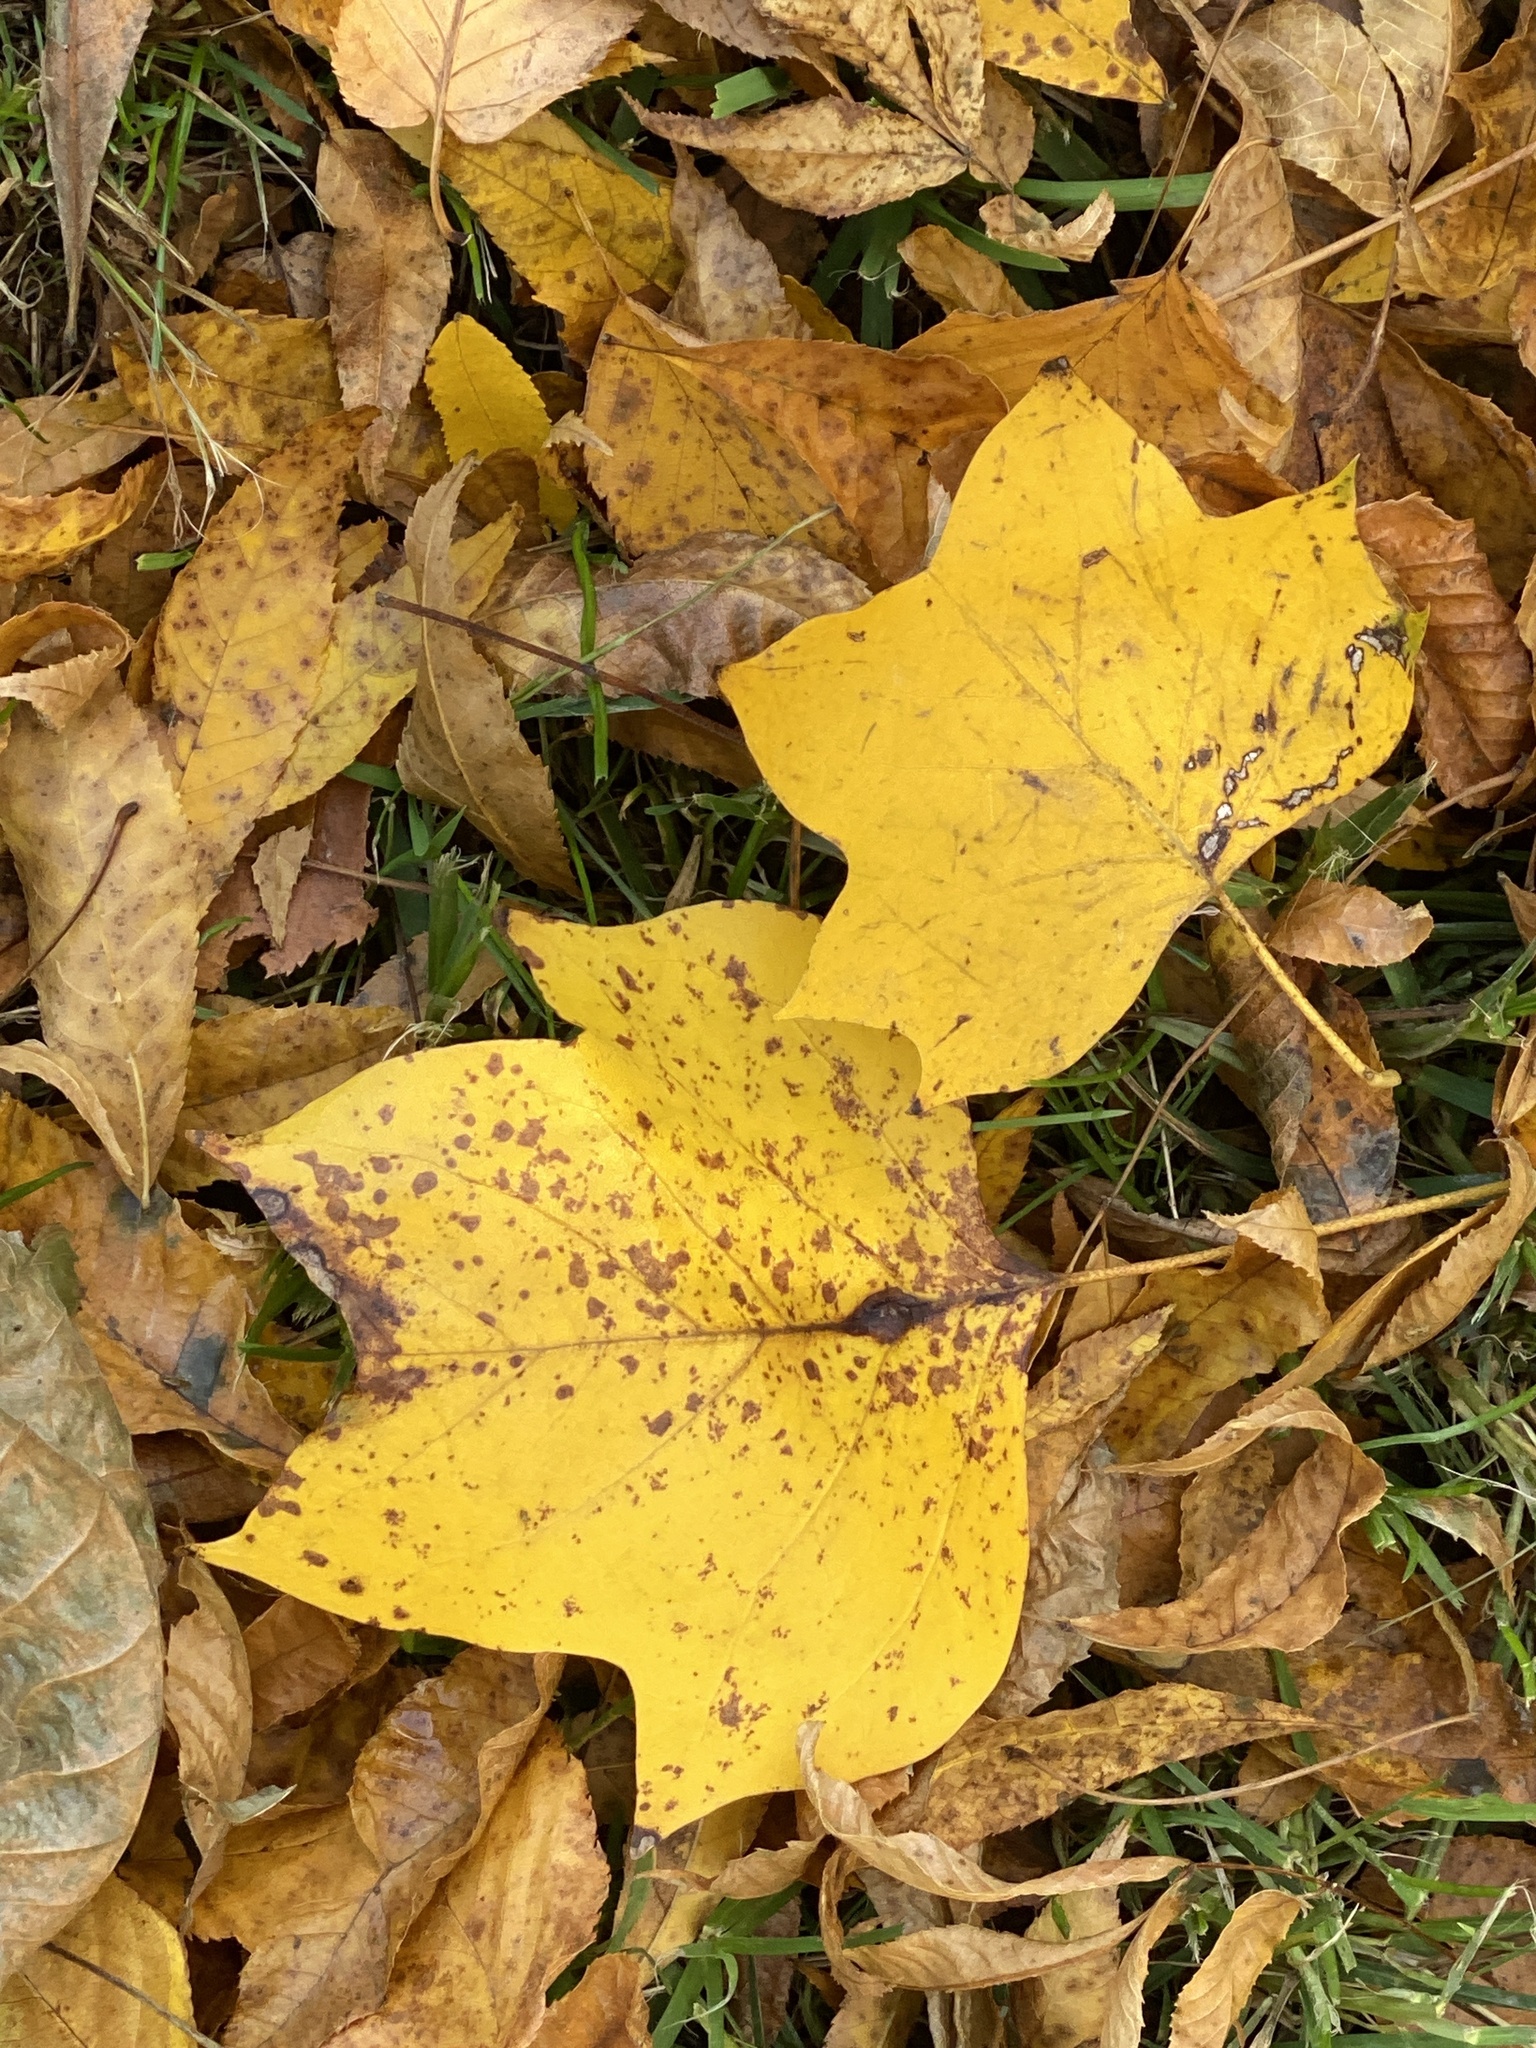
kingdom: Plantae
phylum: Tracheophyta
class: Magnoliopsida
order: Magnoliales
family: Magnoliaceae
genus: Liriodendron
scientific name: Liriodendron tulipifera
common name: Tulip tree
